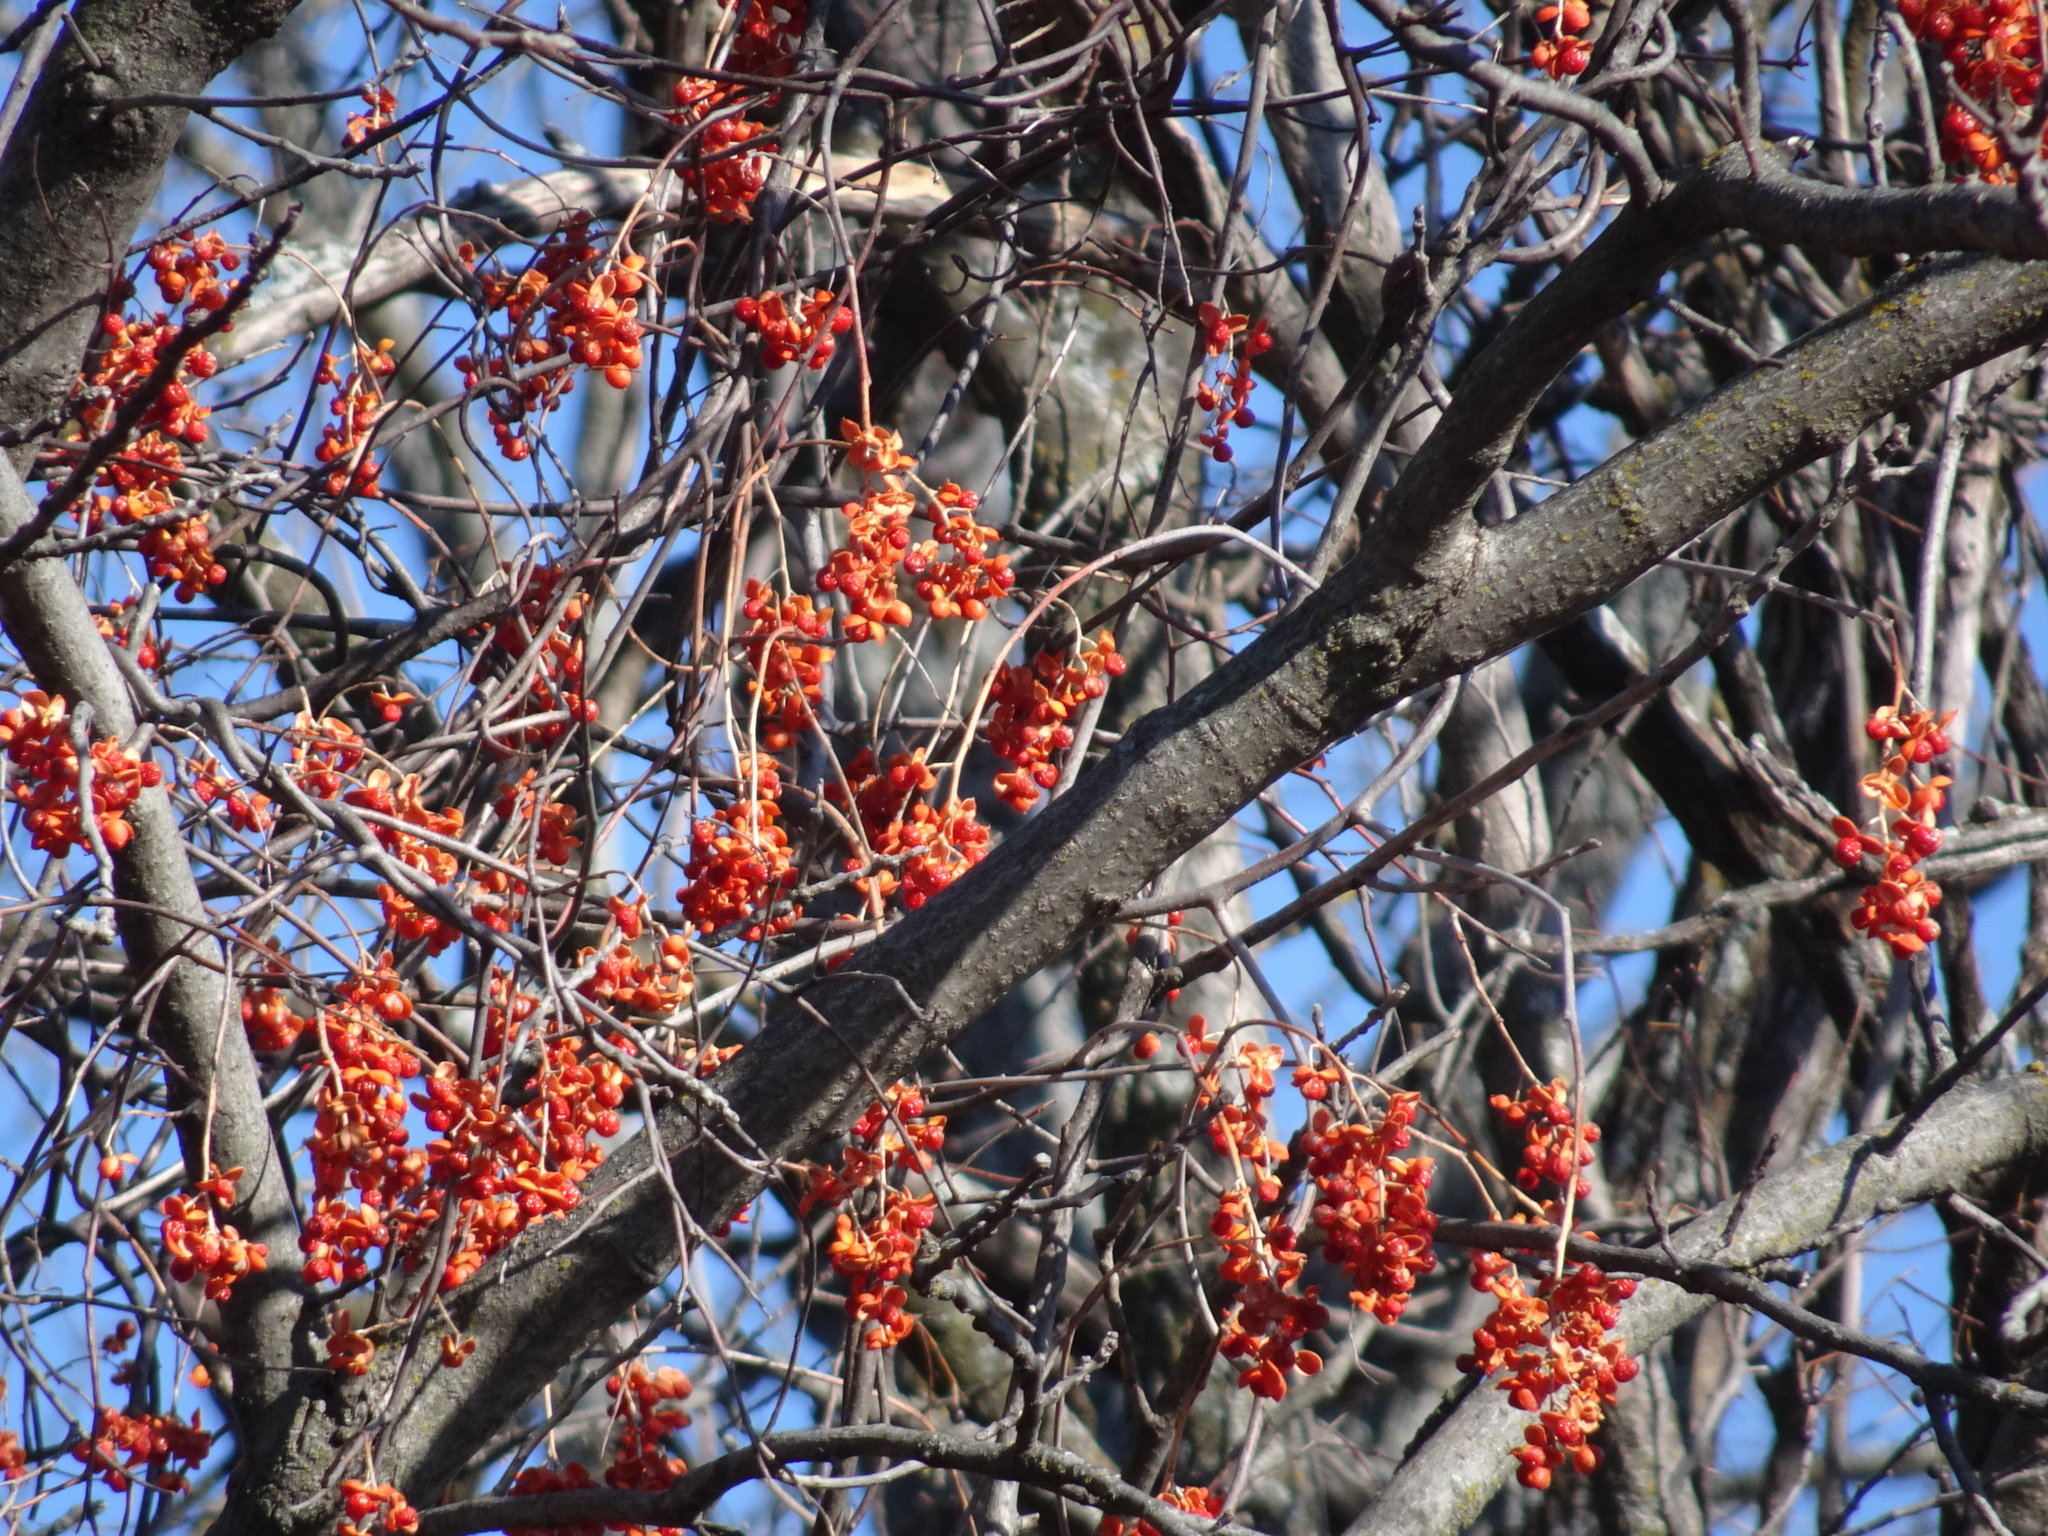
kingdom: Plantae
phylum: Tracheophyta
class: Magnoliopsida
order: Celastrales
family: Celastraceae
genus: Celastrus
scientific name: Celastrus scandens
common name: American bittersweet
